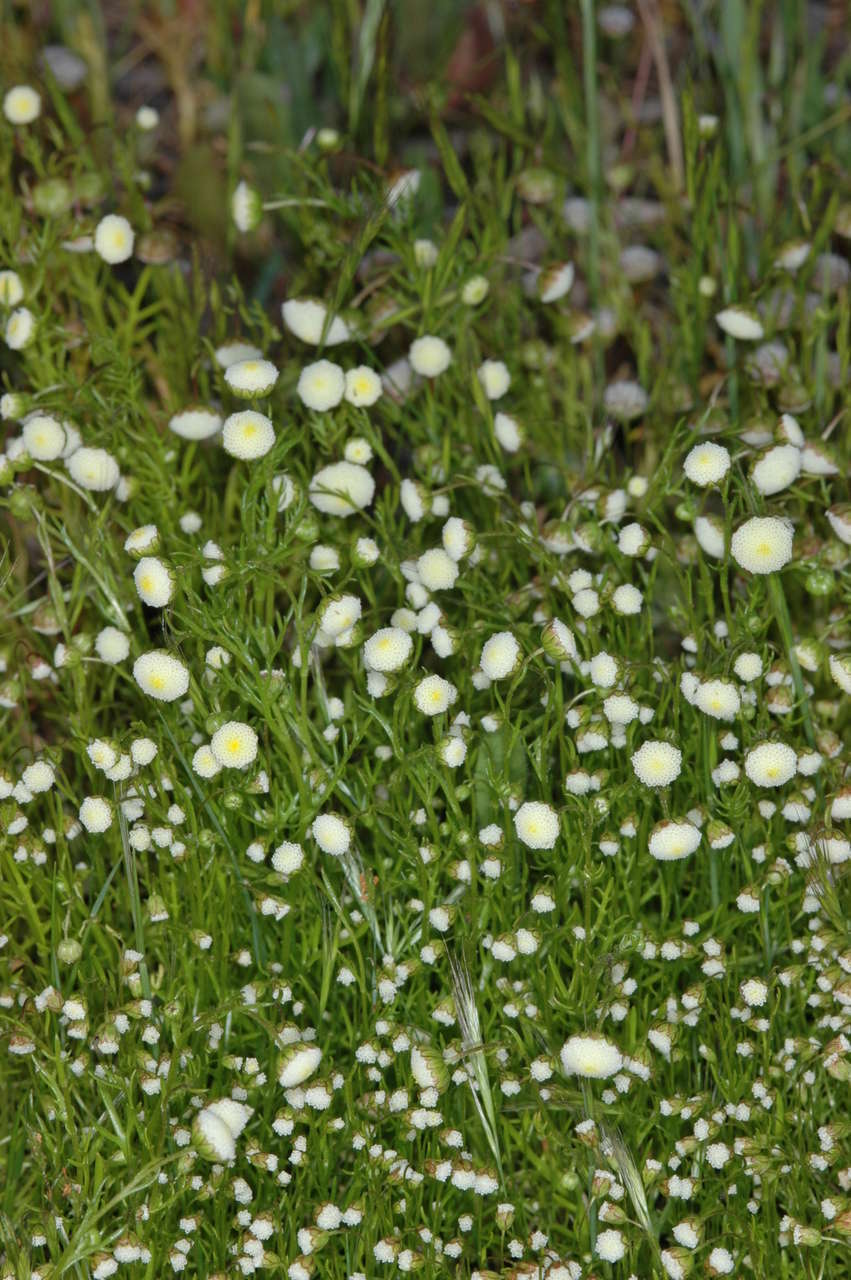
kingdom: Plantae
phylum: Tracheophyta
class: Magnoliopsida
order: Asterales
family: Asteraceae
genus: Cotula
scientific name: Cotula bipinnata
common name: Ferny buttonweed
